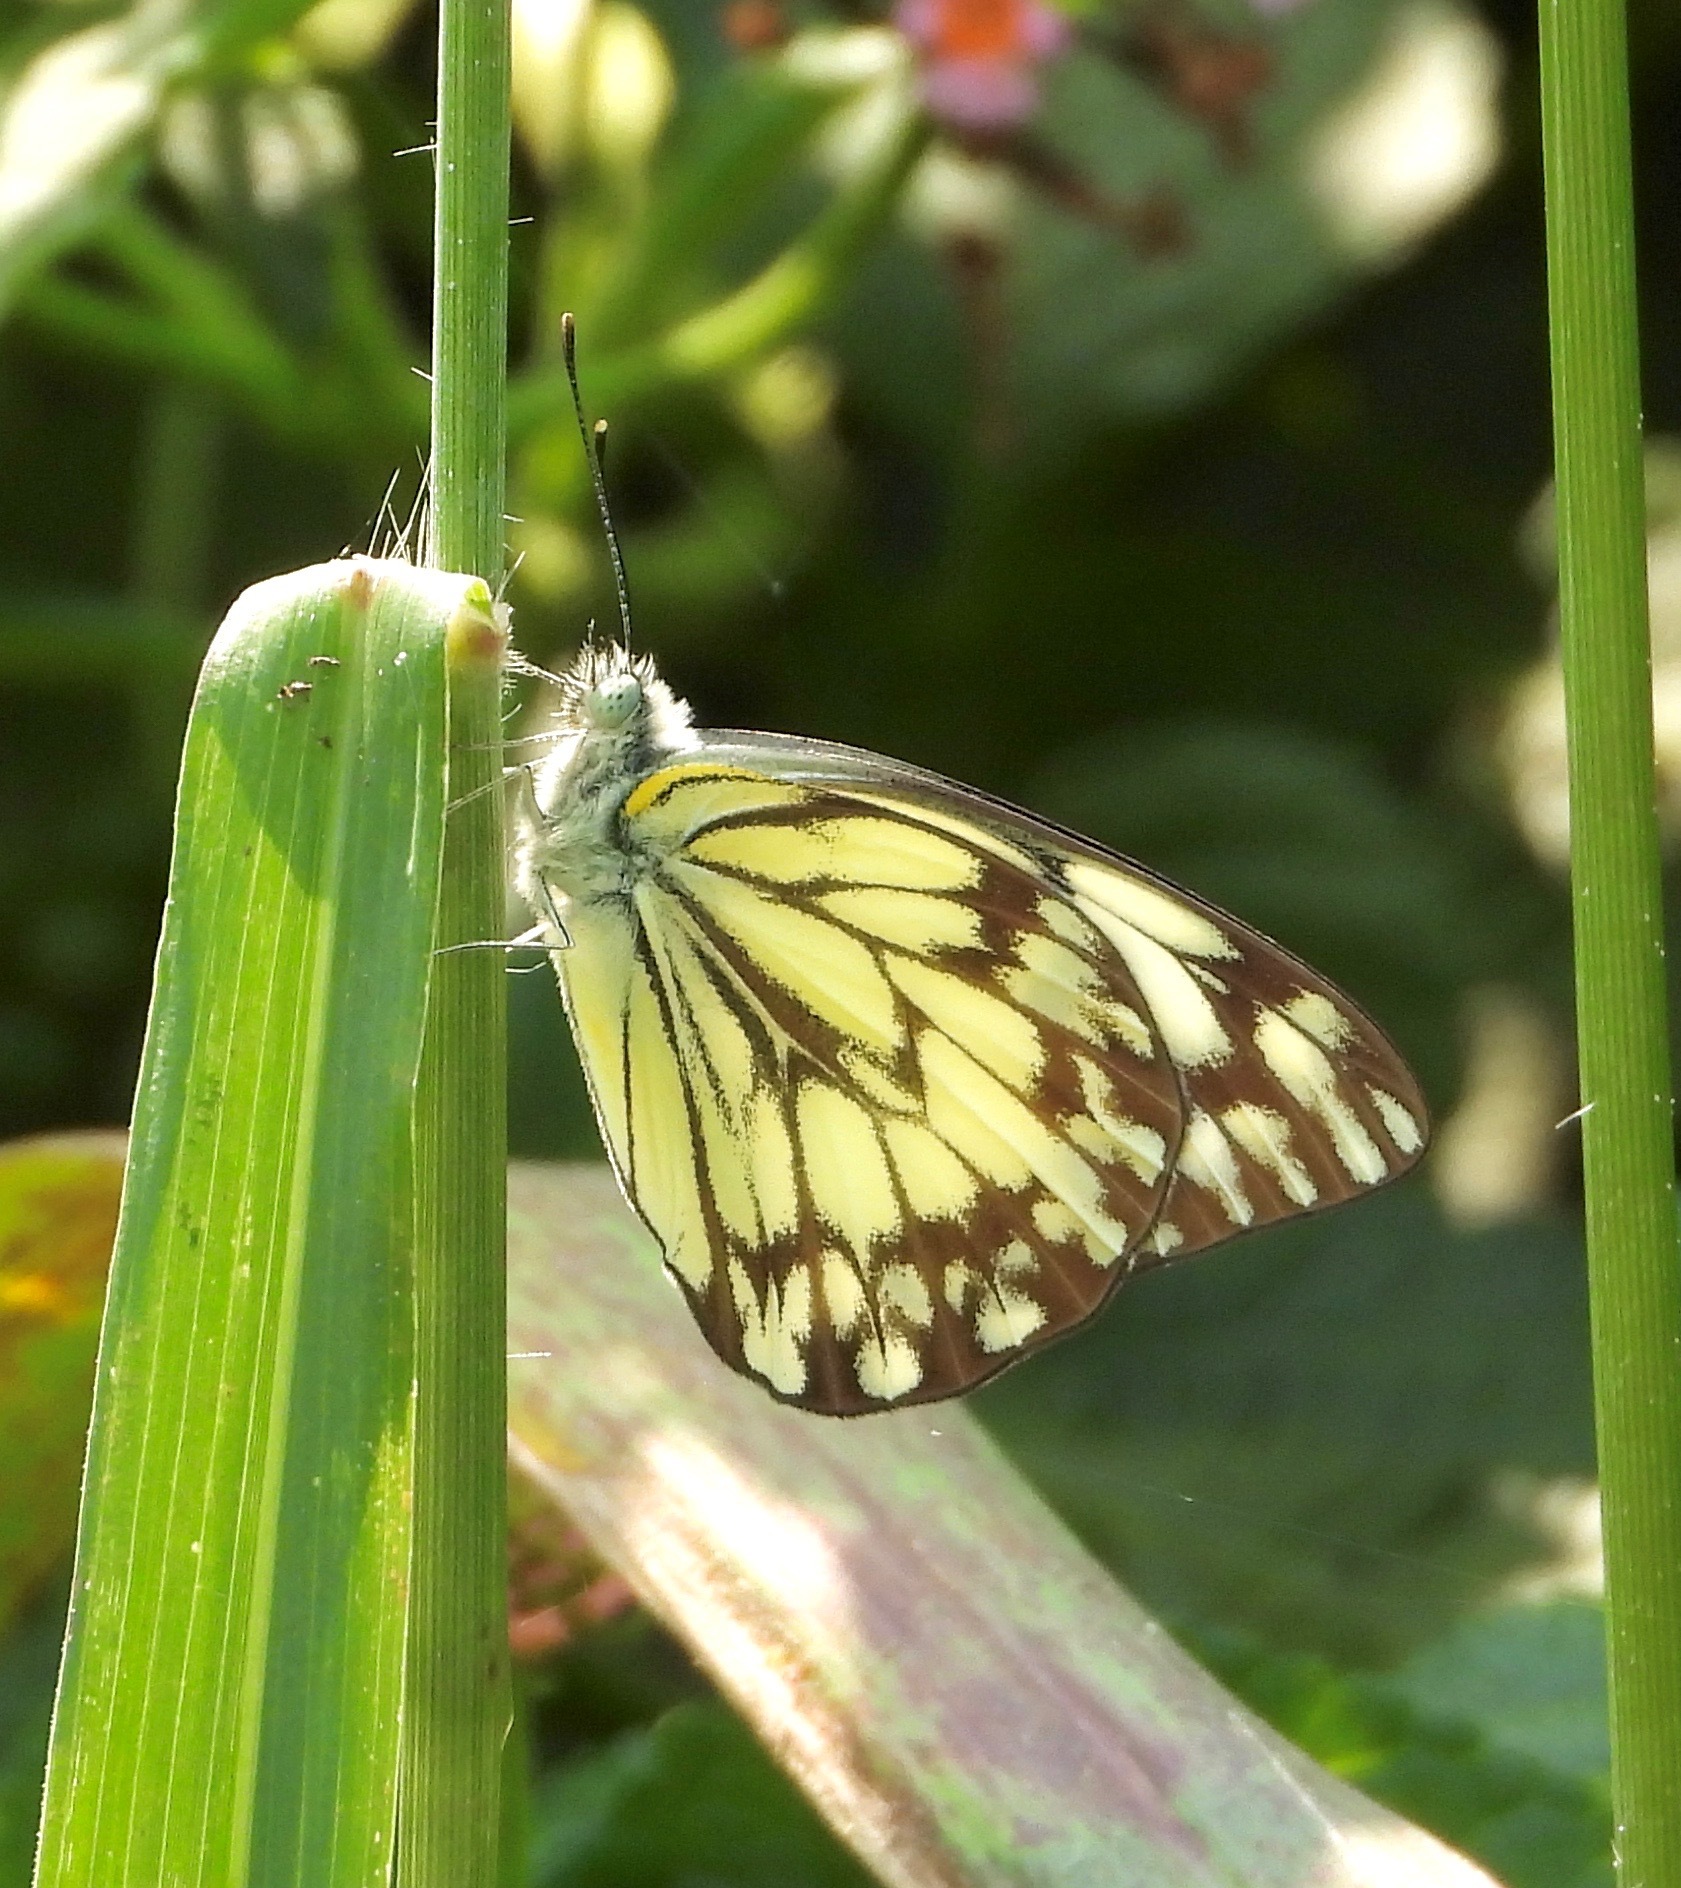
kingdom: Animalia
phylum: Arthropoda
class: Insecta
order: Lepidoptera
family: Pieridae
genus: Belenois
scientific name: Belenois gidica
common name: Pointed caper white
